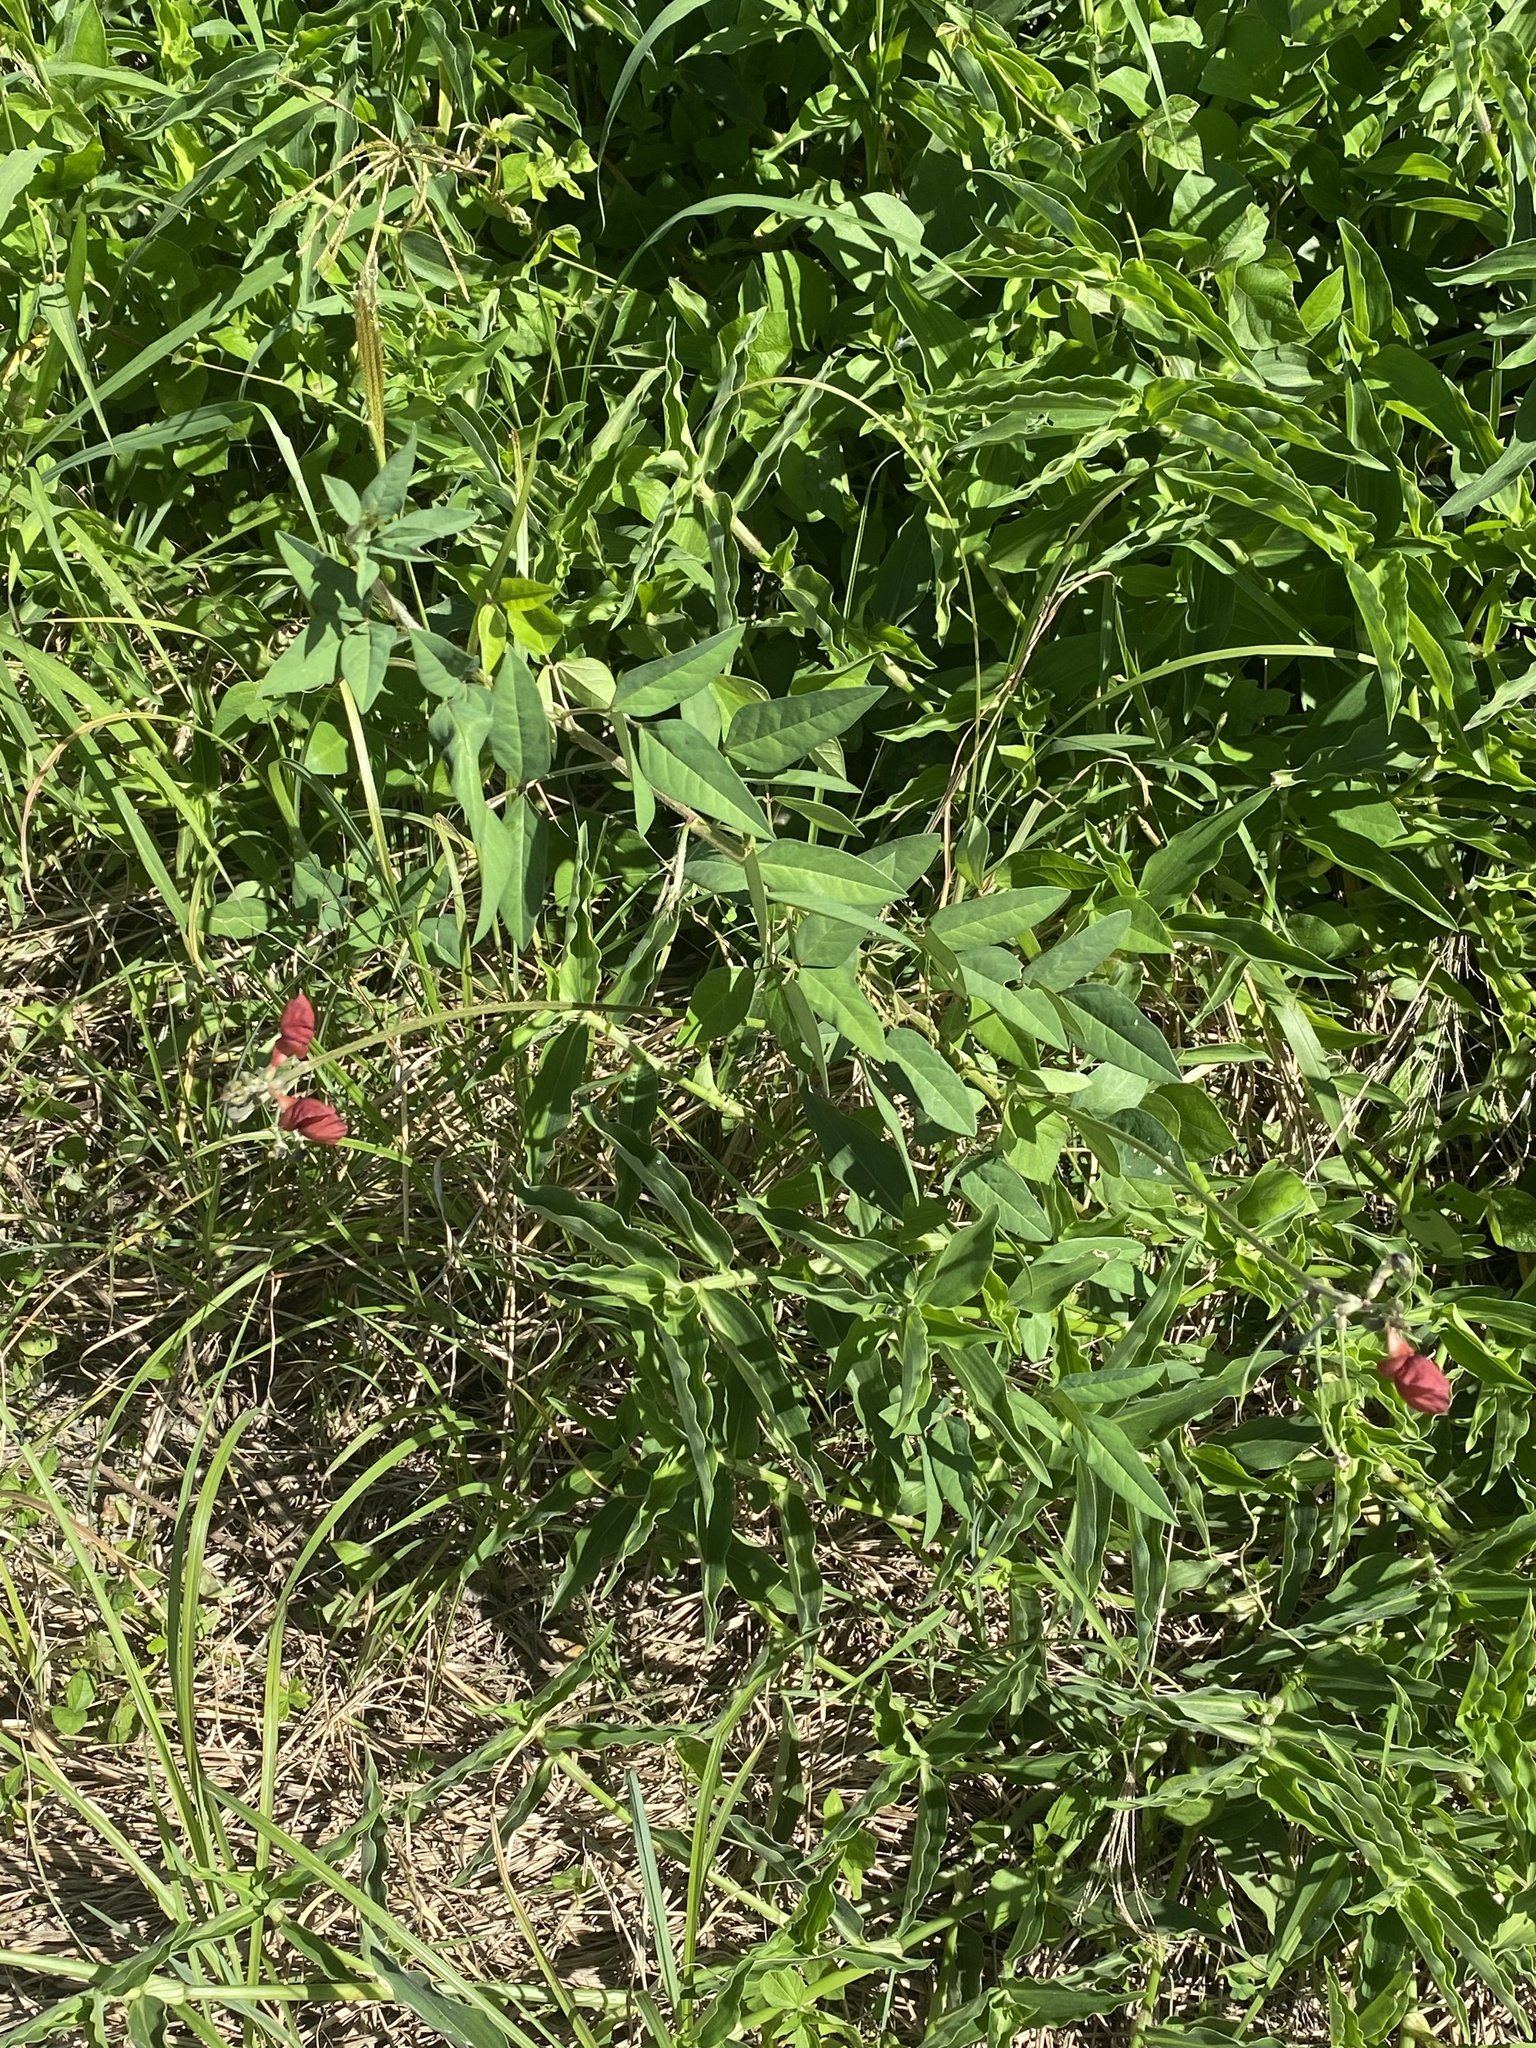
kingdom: Plantae
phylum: Tracheophyta
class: Magnoliopsida
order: Fabales
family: Fabaceae
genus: Macroptilium
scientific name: Macroptilium lathyroides
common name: Wild bushbean
